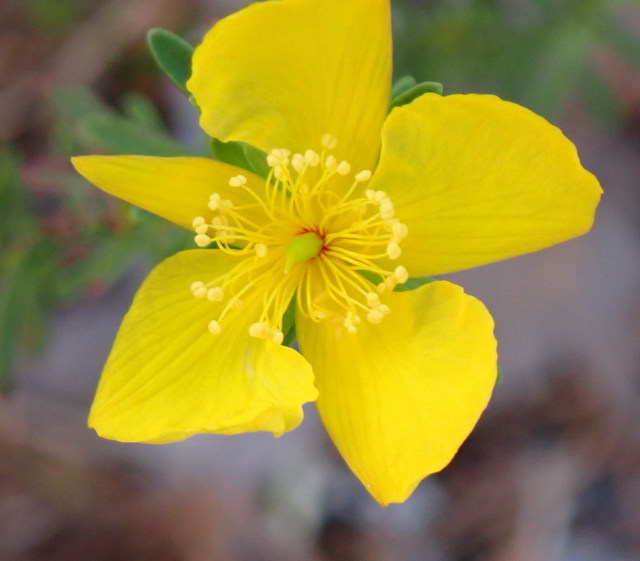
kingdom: Plantae
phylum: Tracheophyta
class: Magnoliopsida
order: Malpighiales
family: Hypericaceae
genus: Hypericum
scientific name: Hypericum microsepalum
